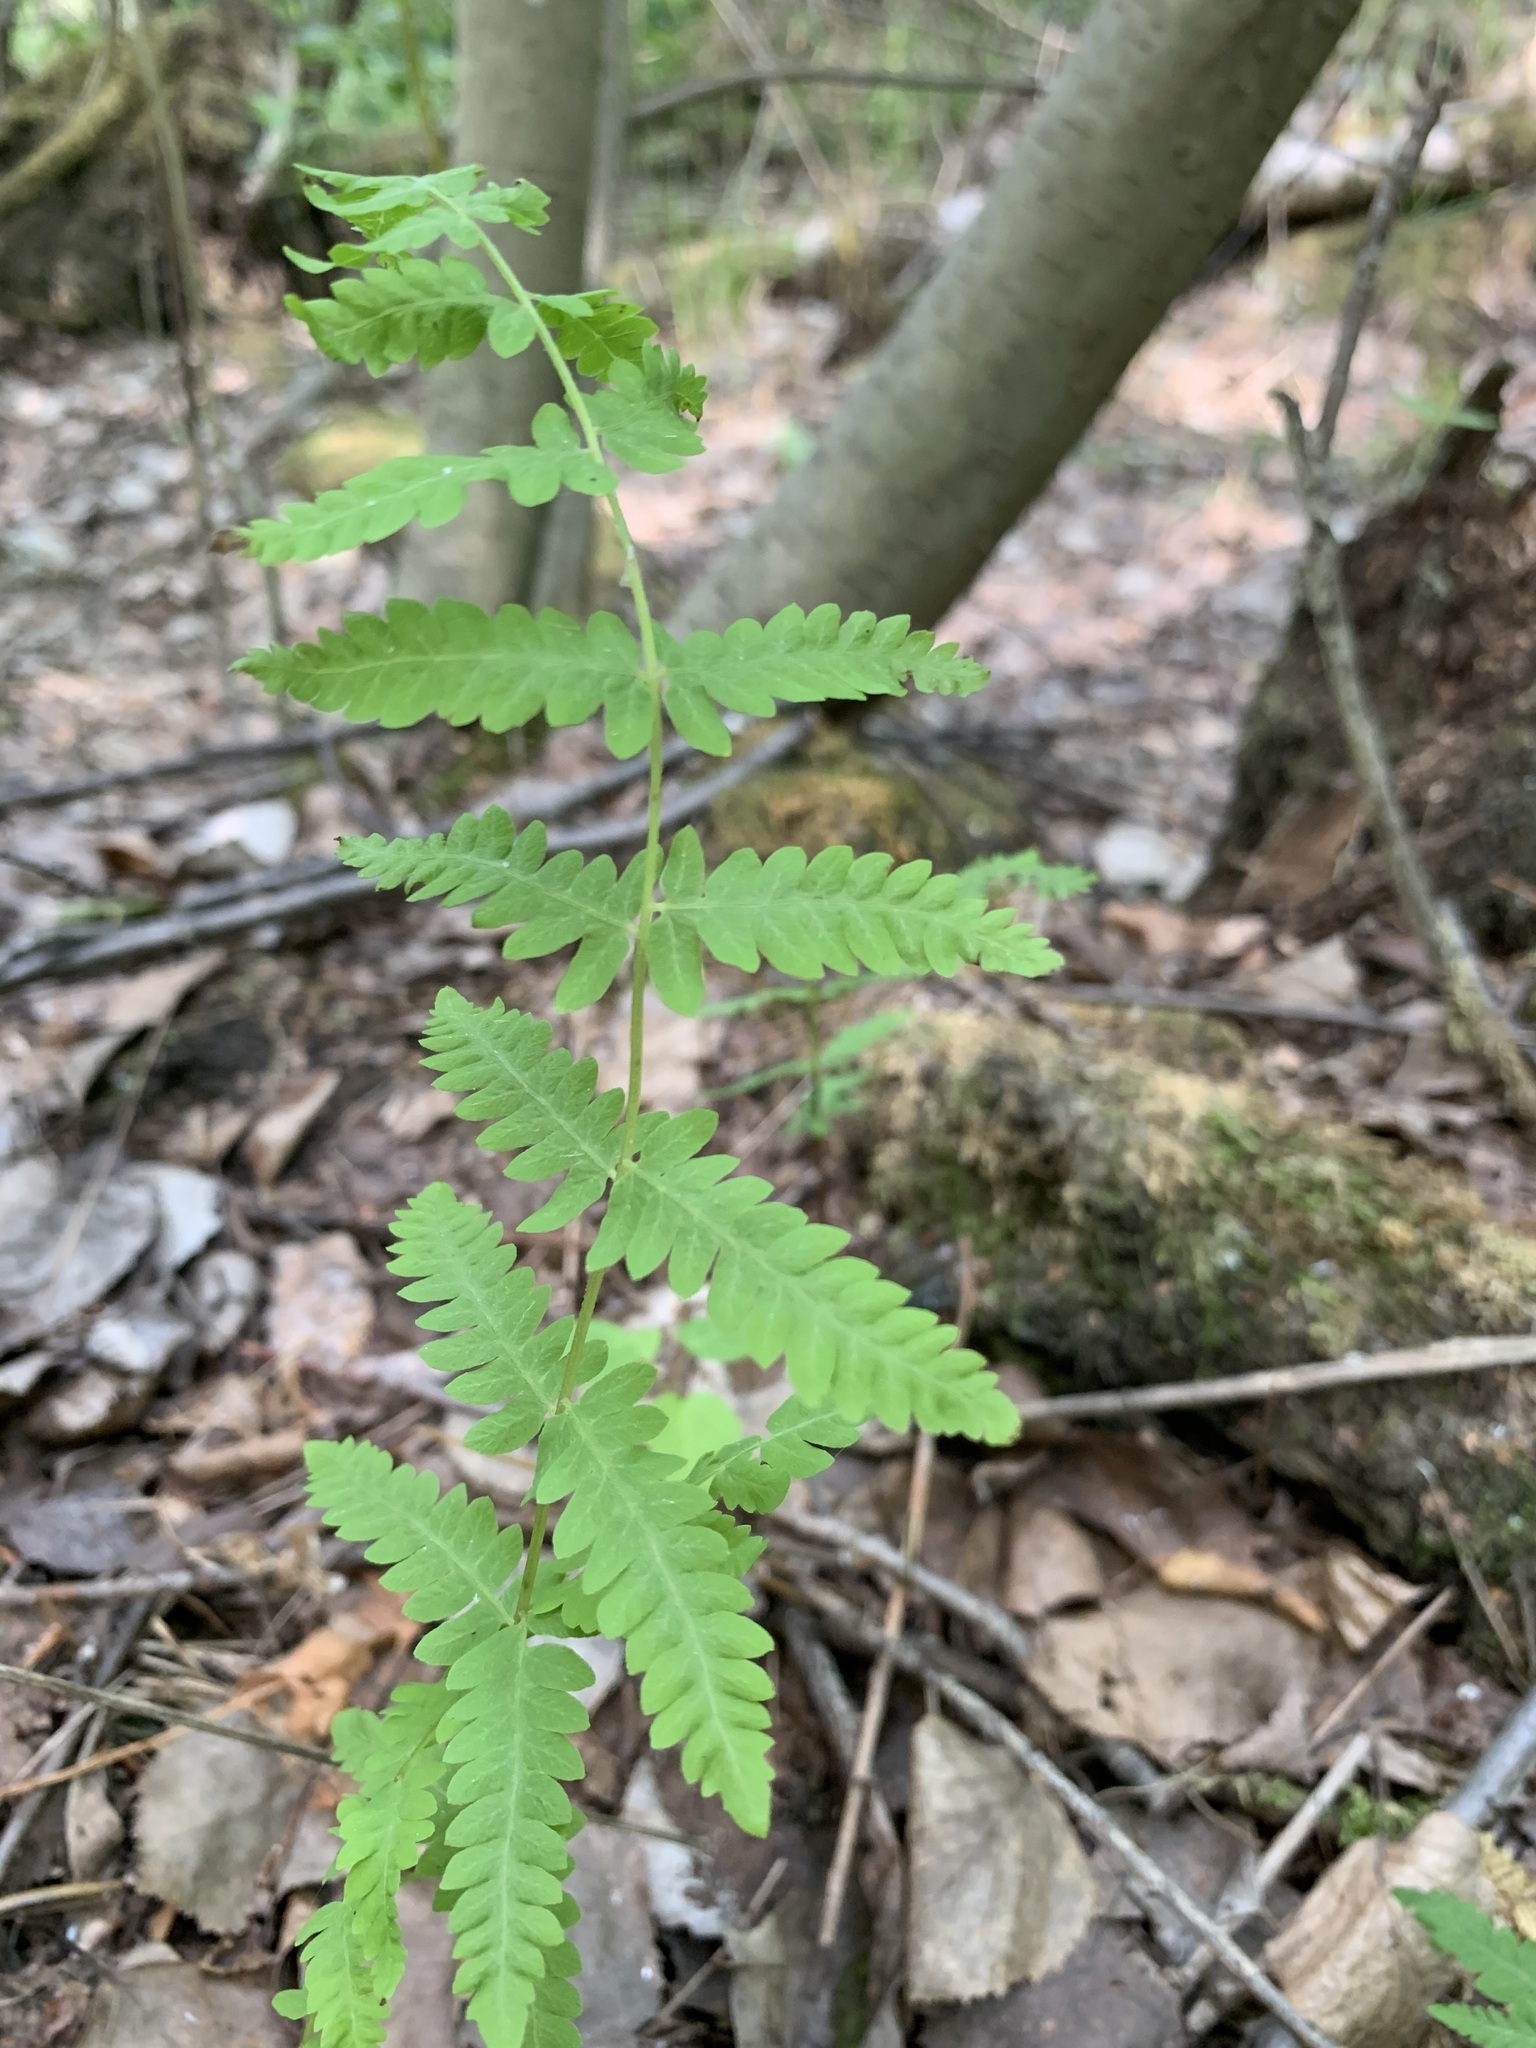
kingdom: Plantae
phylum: Tracheophyta
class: Polypodiopsida
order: Polypodiales
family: Thelypteridaceae
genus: Thelypteris
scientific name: Thelypteris palustris
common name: Marsh fern
